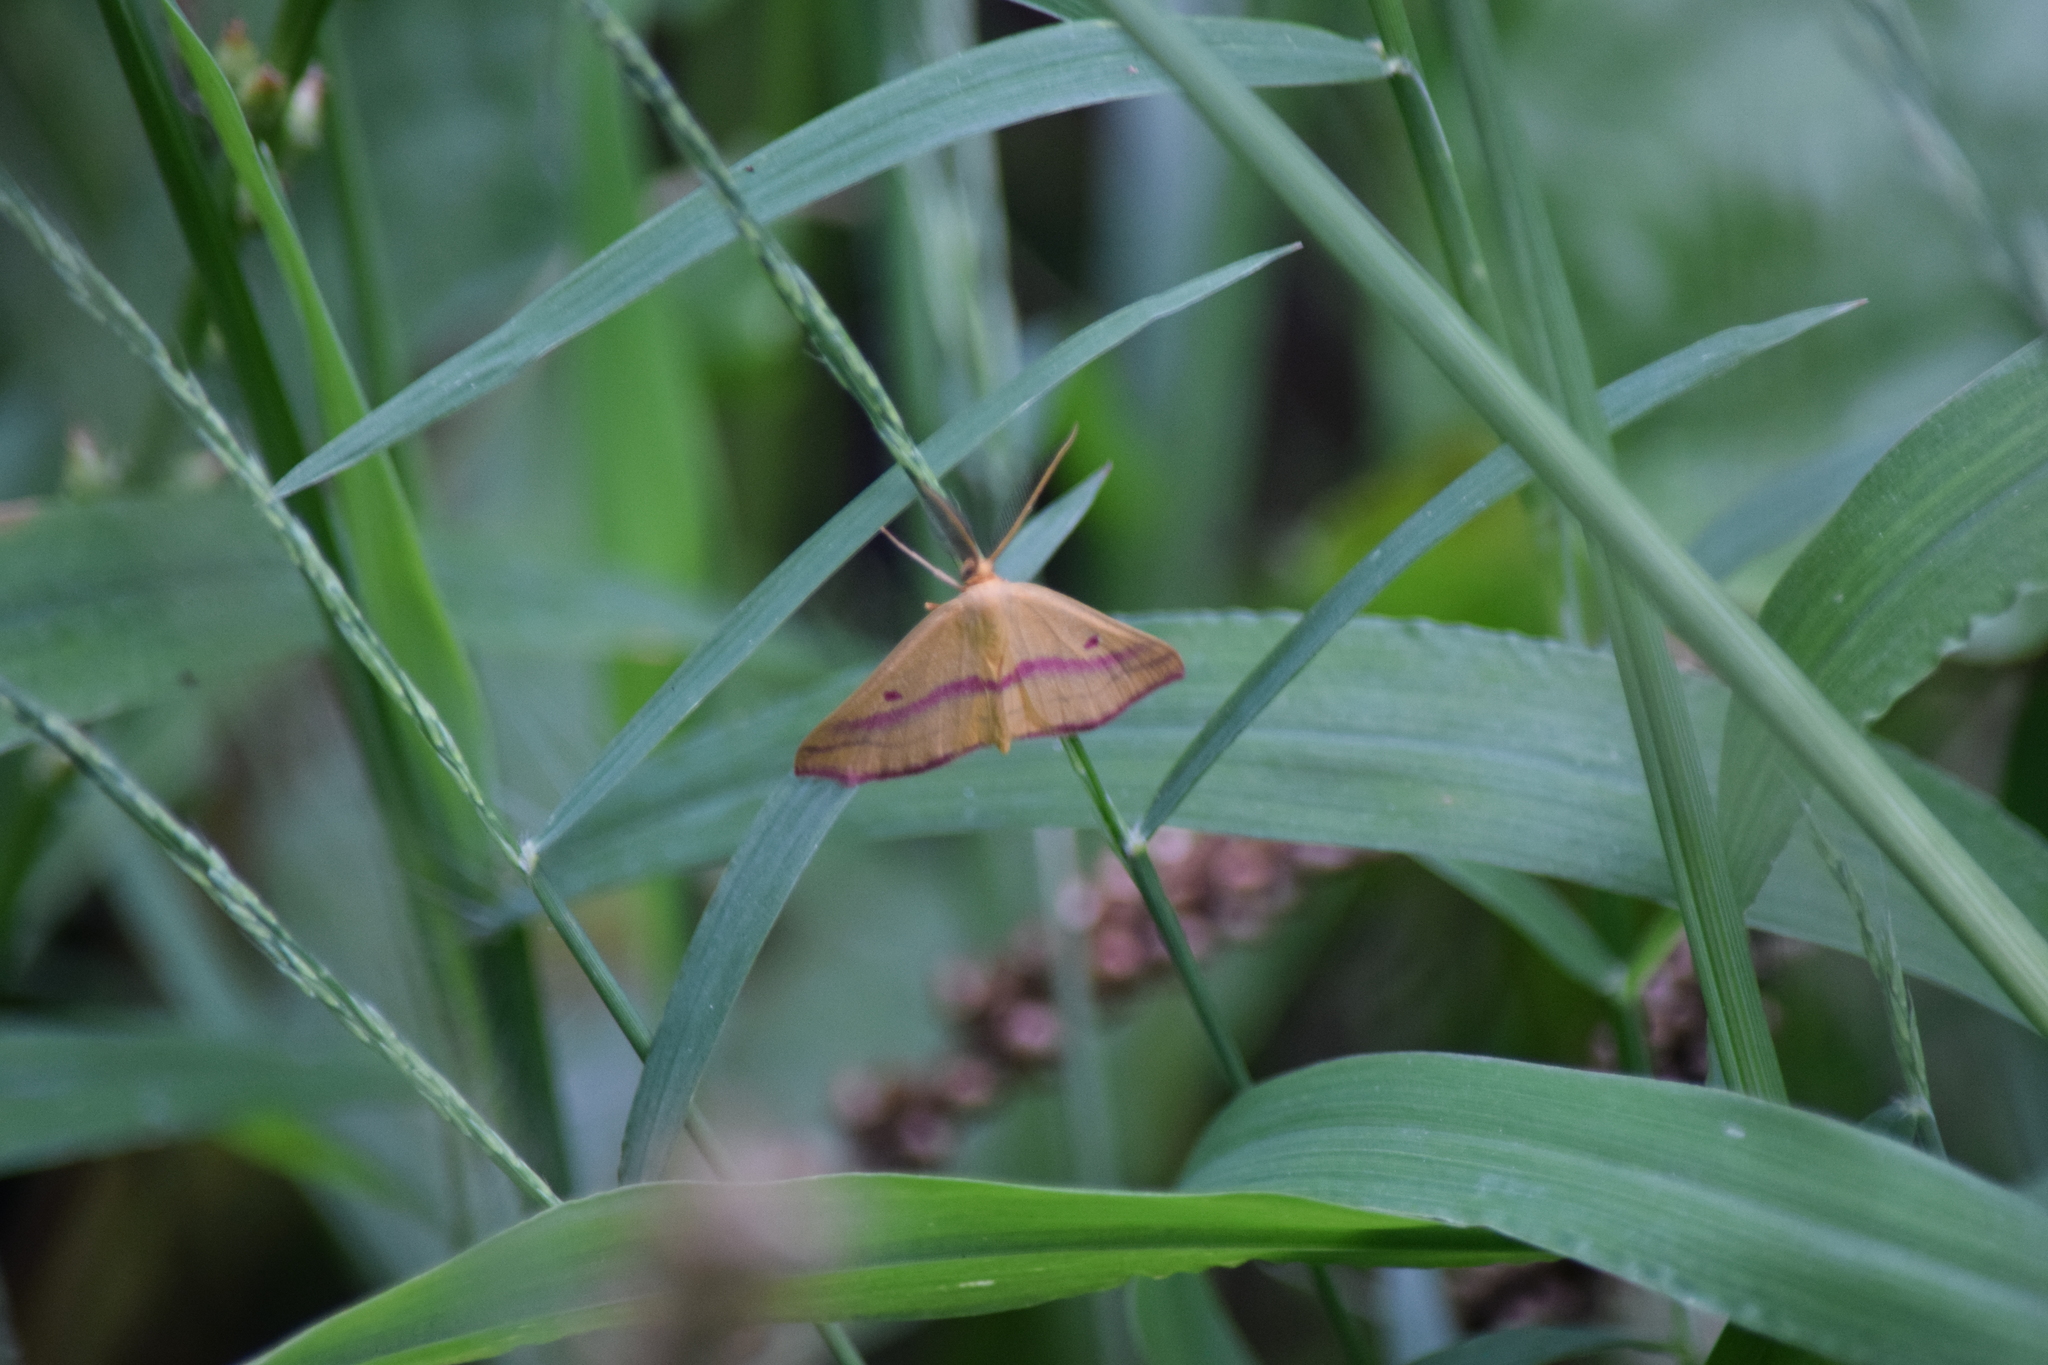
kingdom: Animalia
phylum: Arthropoda
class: Insecta
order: Lepidoptera
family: Geometridae
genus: Haematopis
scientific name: Haematopis grataria
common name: Chickweed geometer
